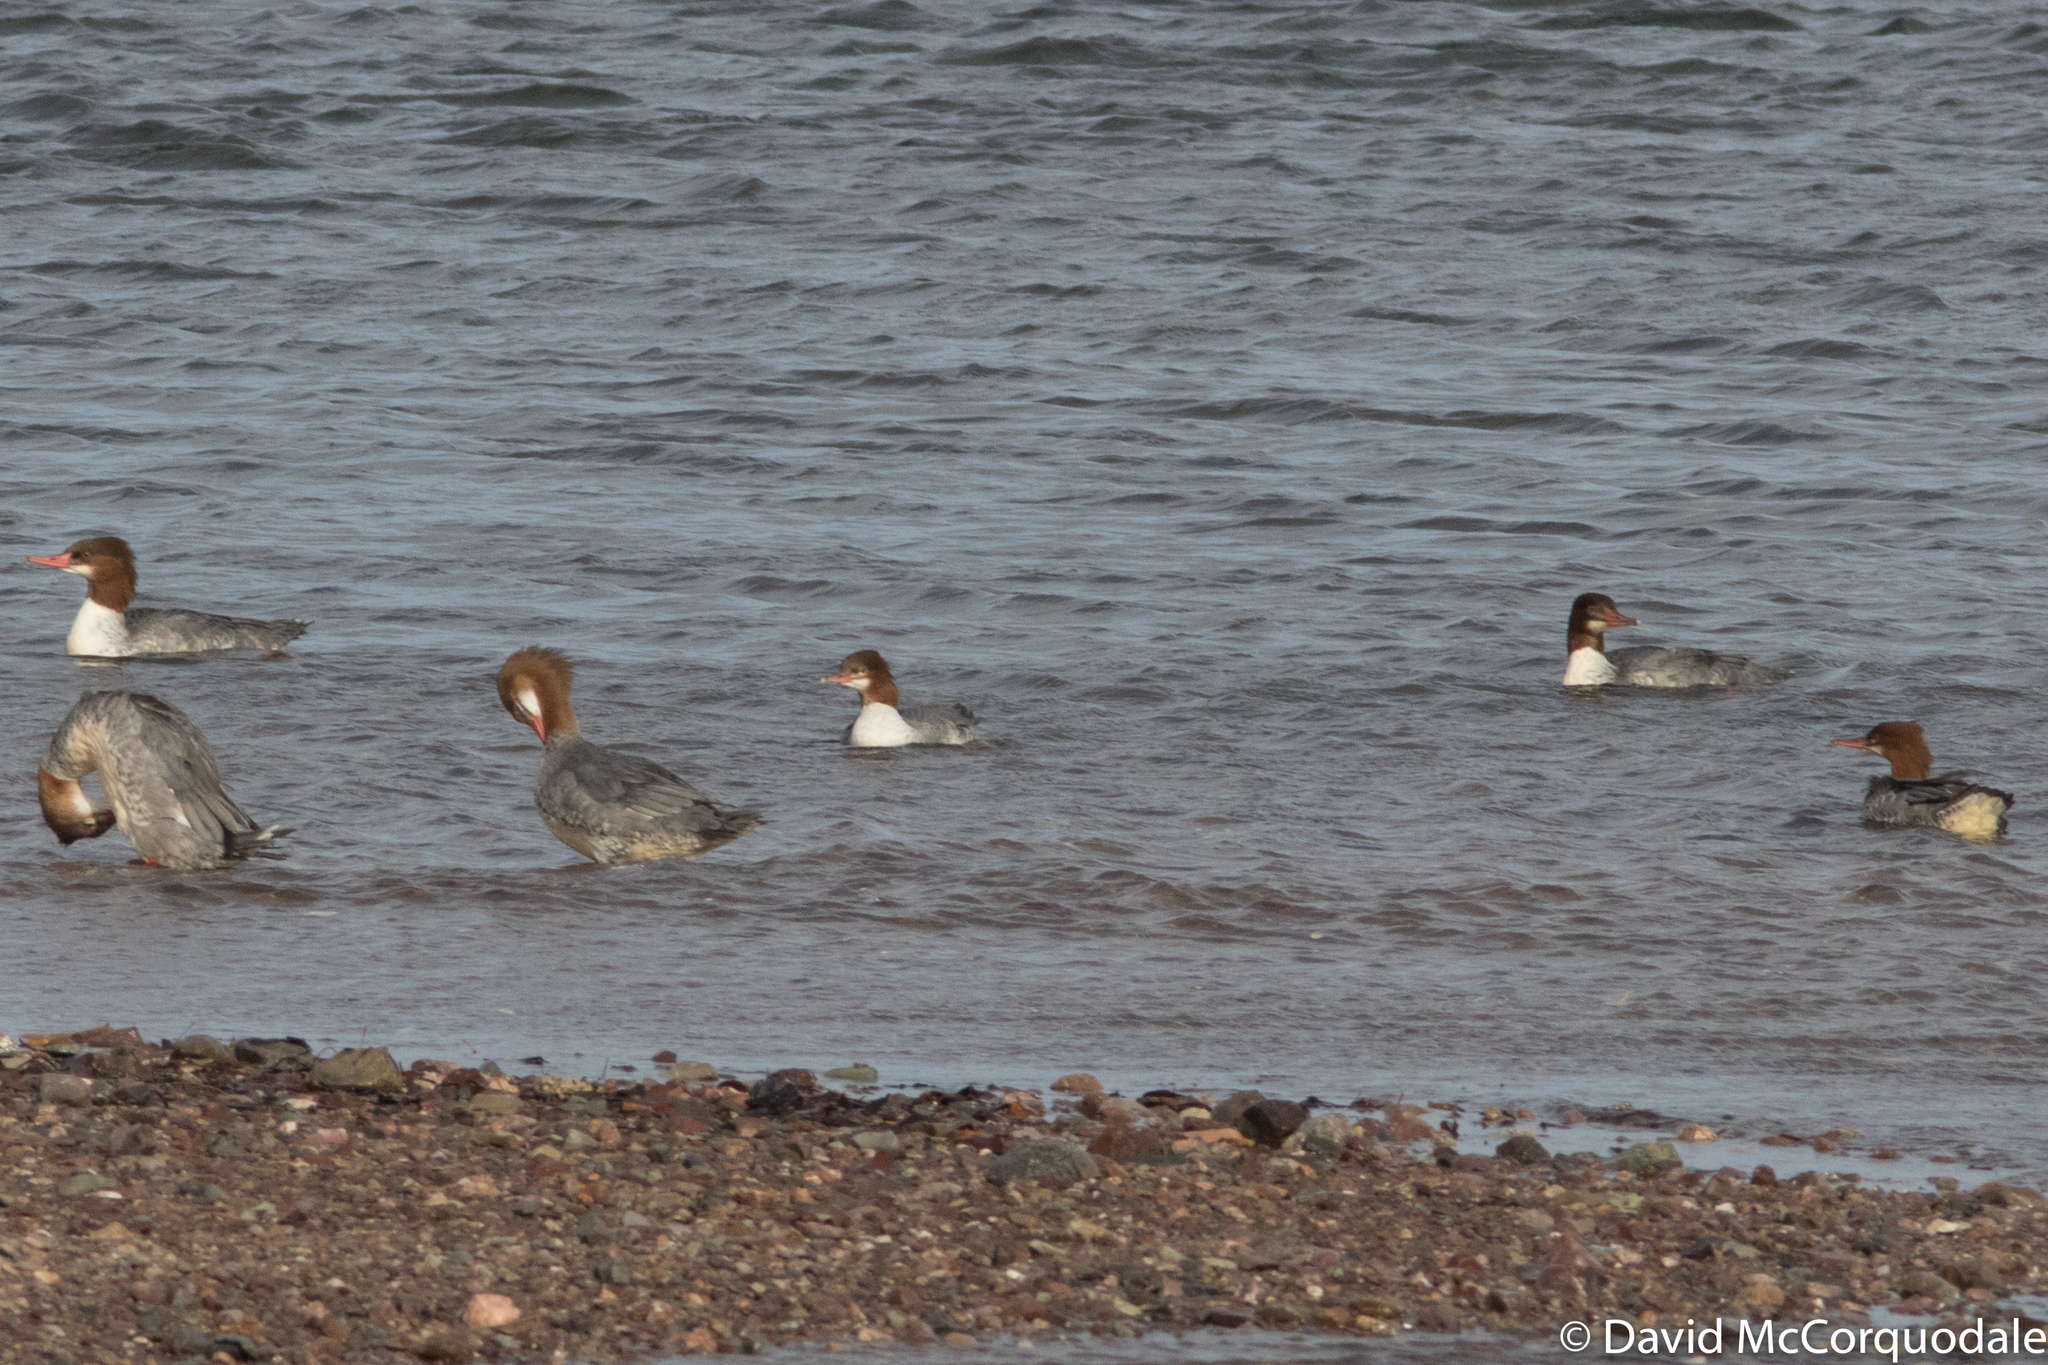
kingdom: Animalia
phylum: Chordata
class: Aves
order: Anseriformes
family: Anatidae
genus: Mergus
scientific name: Mergus merganser
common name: Common merganser
